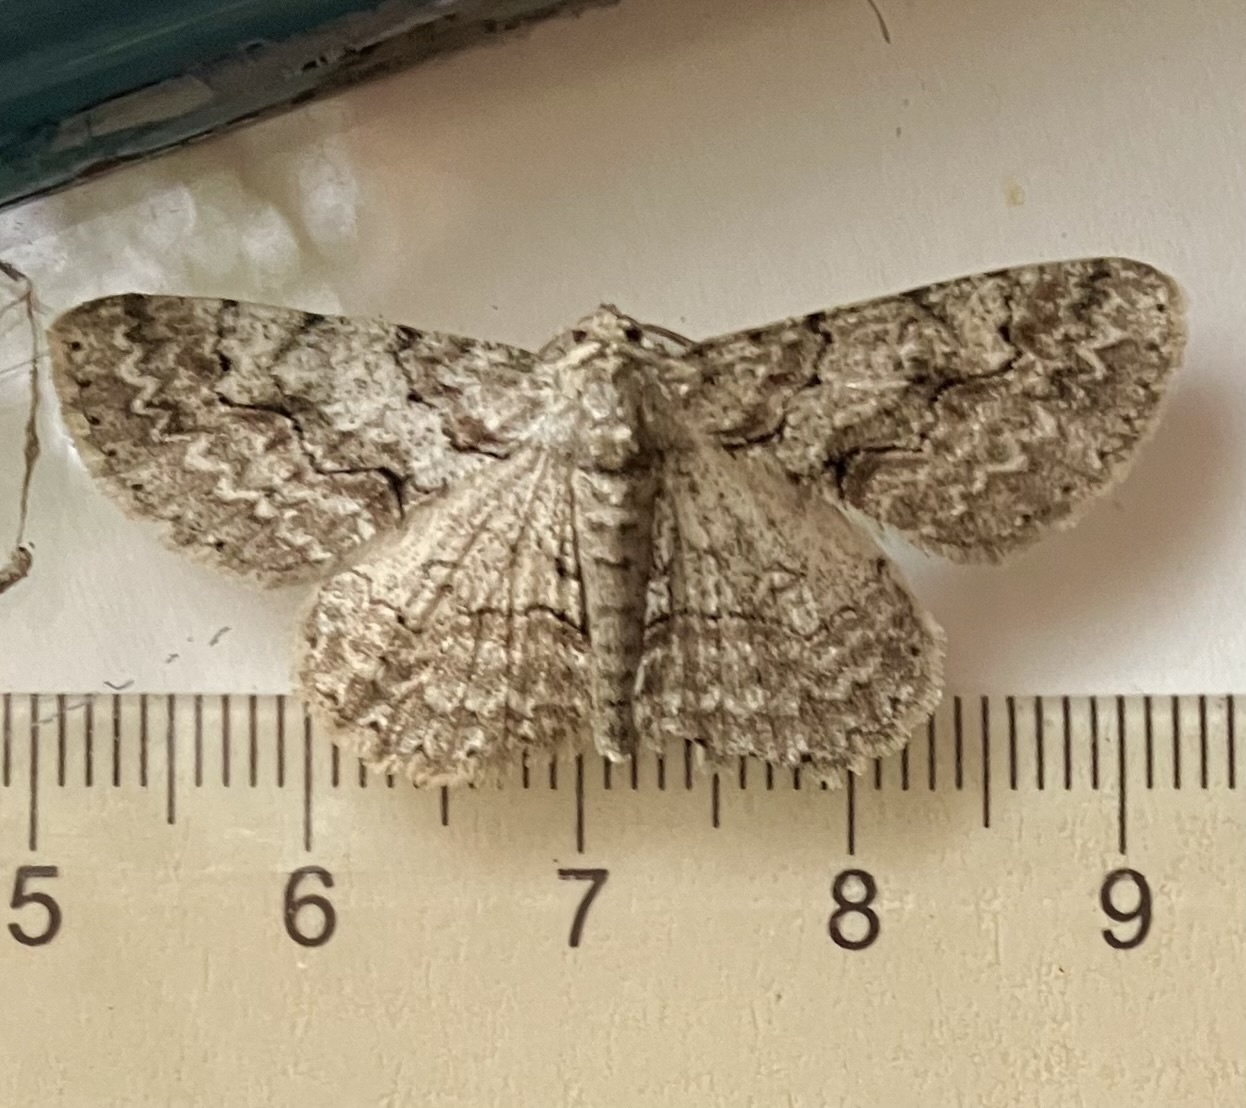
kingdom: Animalia
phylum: Arthropoda
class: Insecta
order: Lepidoptera
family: Geometridae
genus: Iridopsis
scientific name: Iridopsis defectaria
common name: Brown-shaded gray
